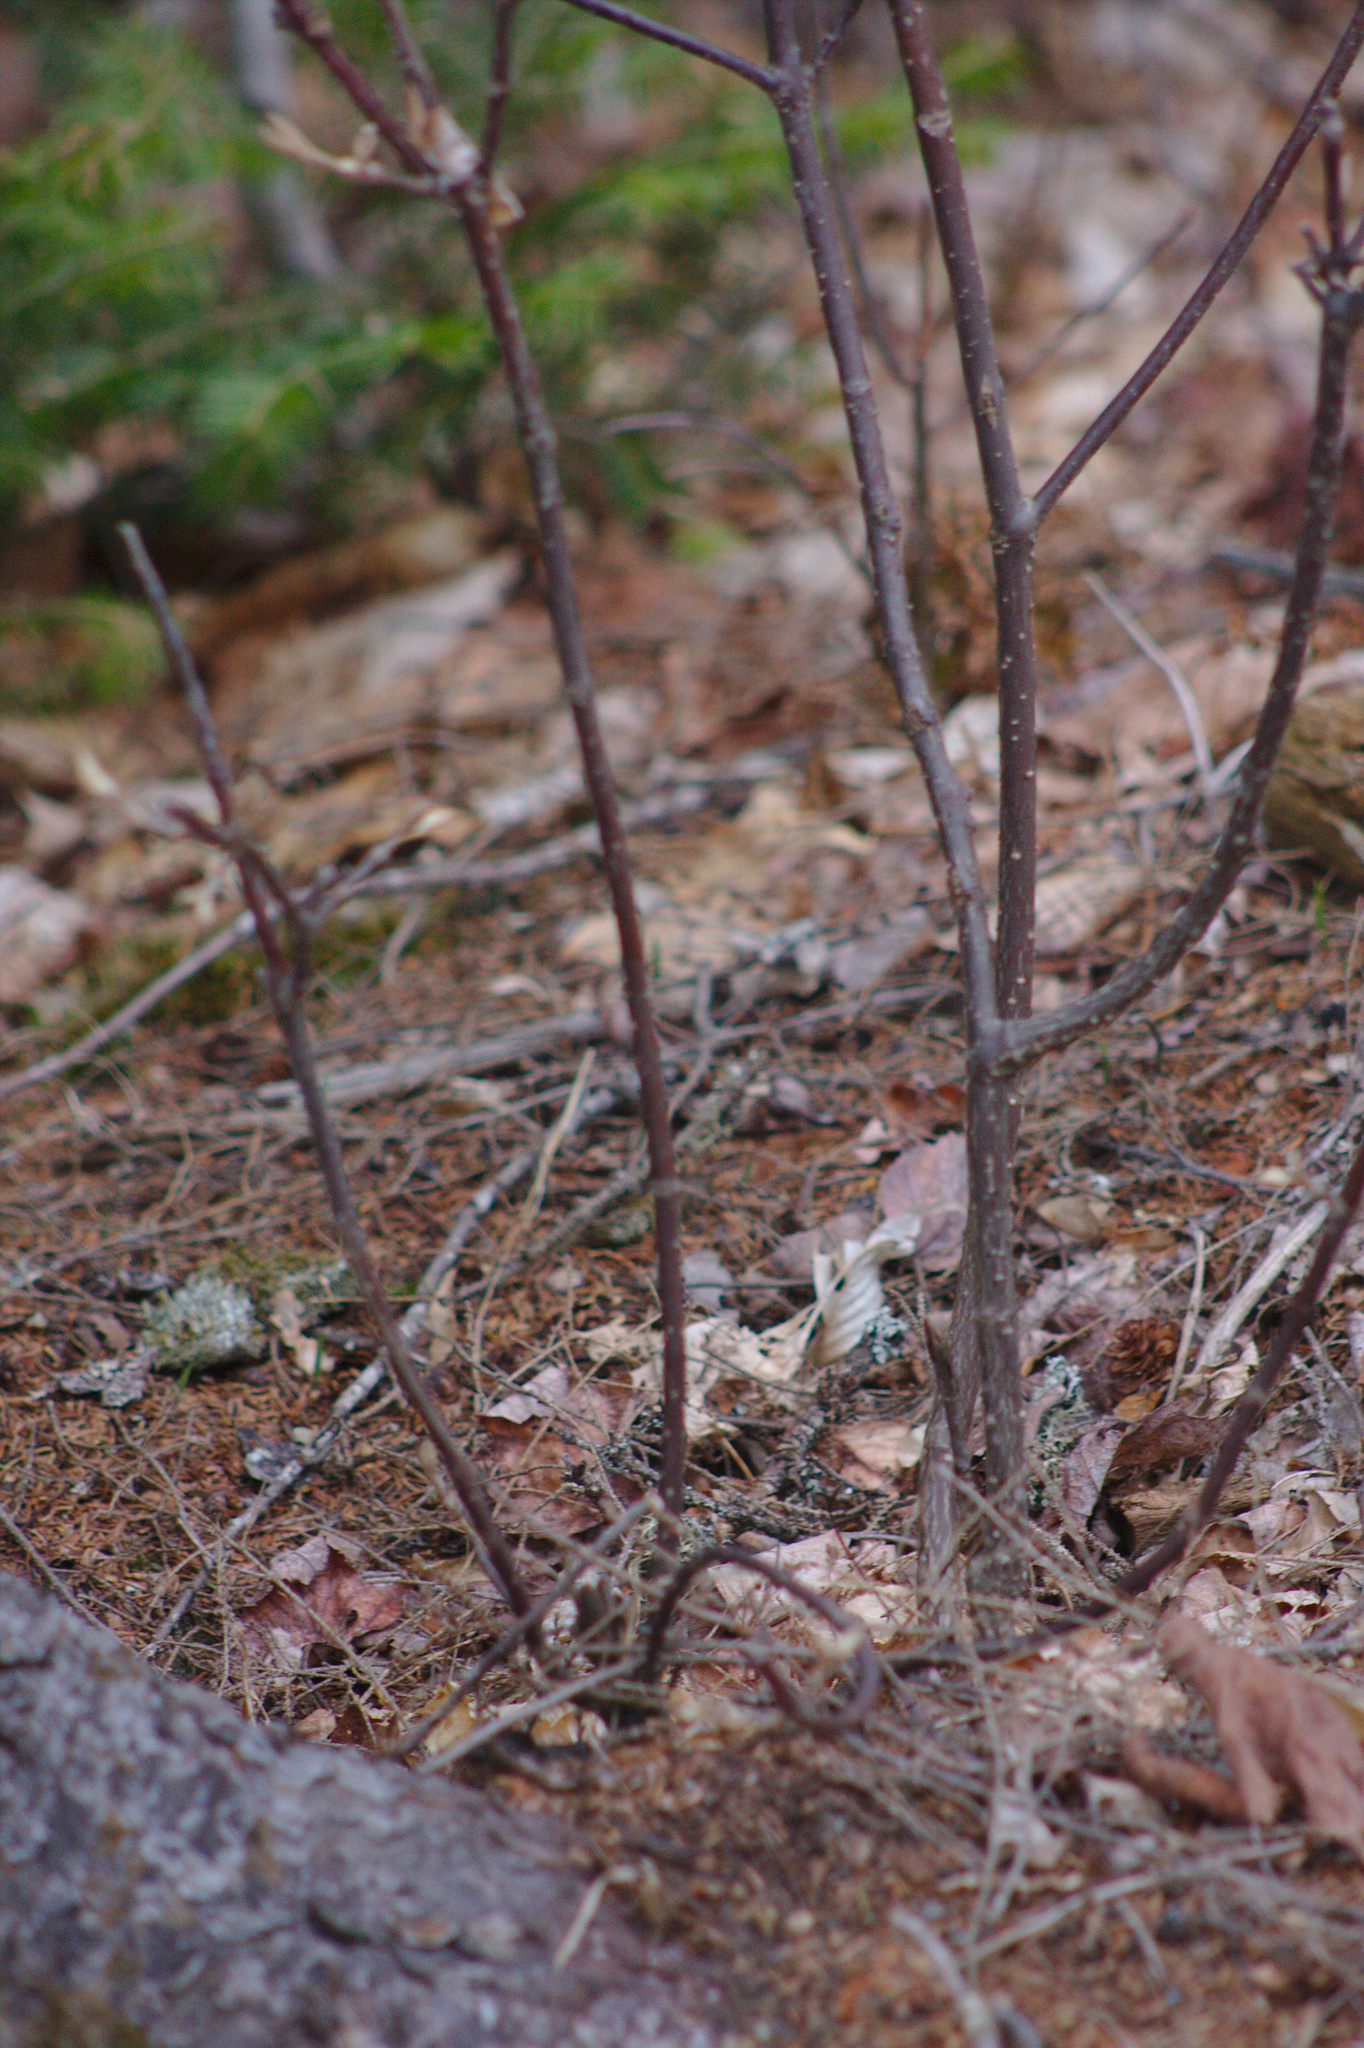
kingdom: Plantae
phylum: Tracheophyta
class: Magnoliopsida
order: Dipsacales
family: Viburnaceae
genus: Viburnum
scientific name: Viburnum lantanoides
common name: Hobblebush
